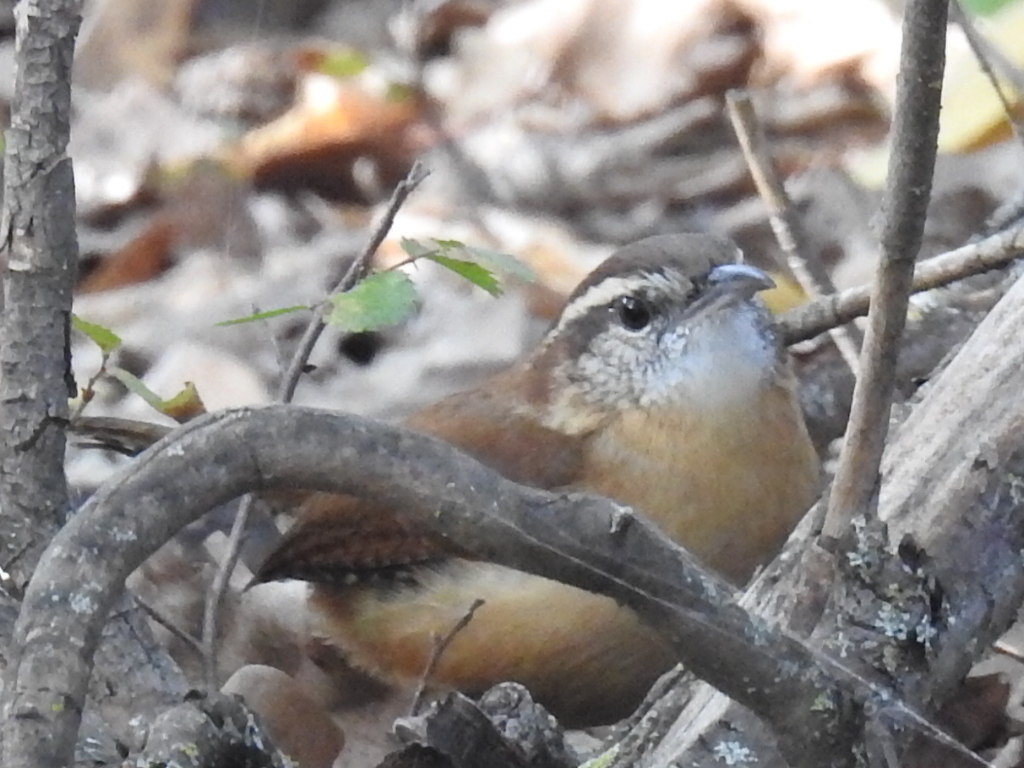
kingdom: Animalia
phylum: Chordata
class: Aves
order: Passeriformes
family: Troglodytidae
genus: Thryothorus
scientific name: Thryothorus ludovicianus
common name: Carolina wren
